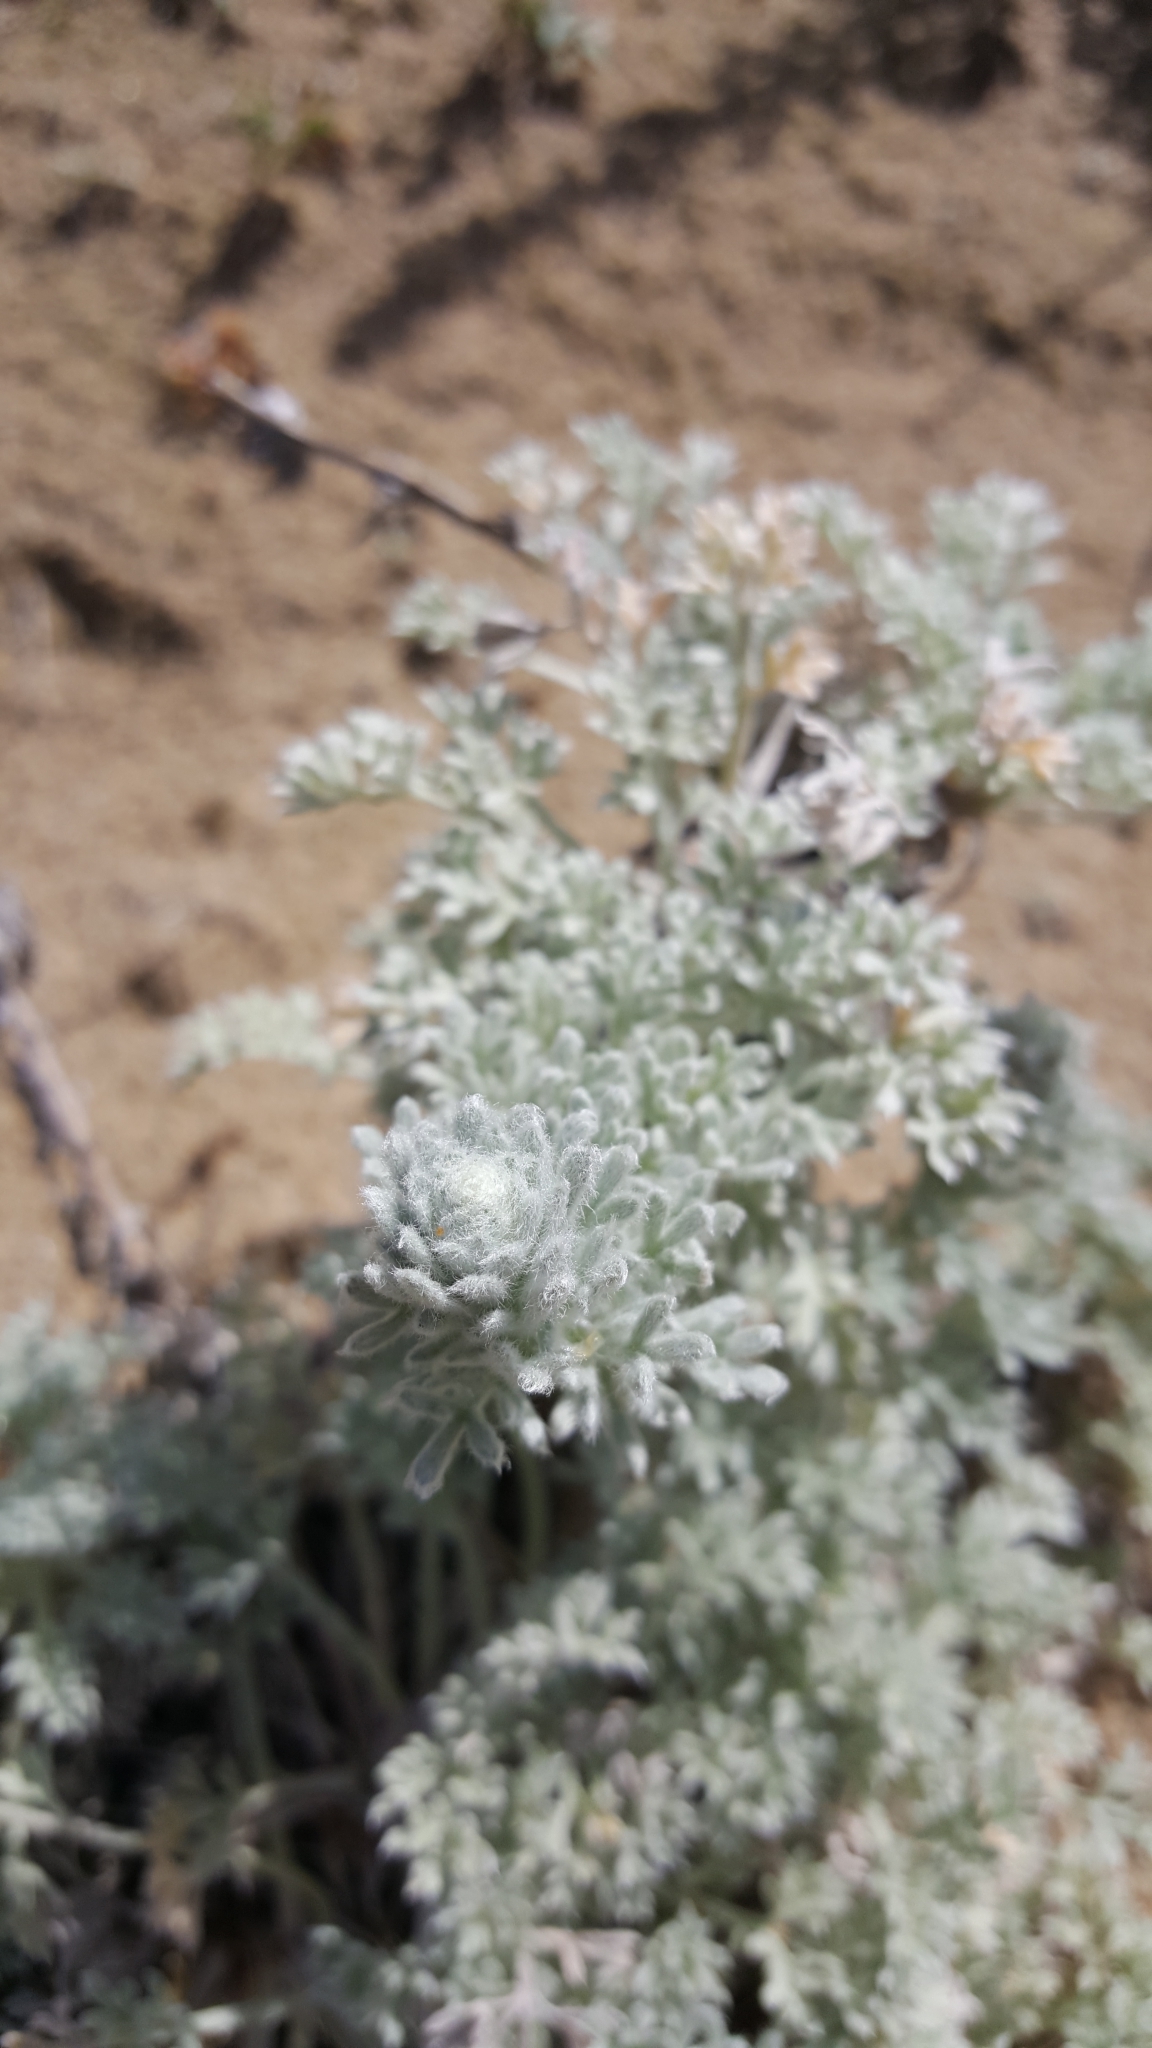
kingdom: Plantae
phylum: Tracheophyta
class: Magnoliopsida
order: Asterales
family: Asteraceae
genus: Artemisia
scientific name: Artemisia pycnocephala
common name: Coastal sagewort
